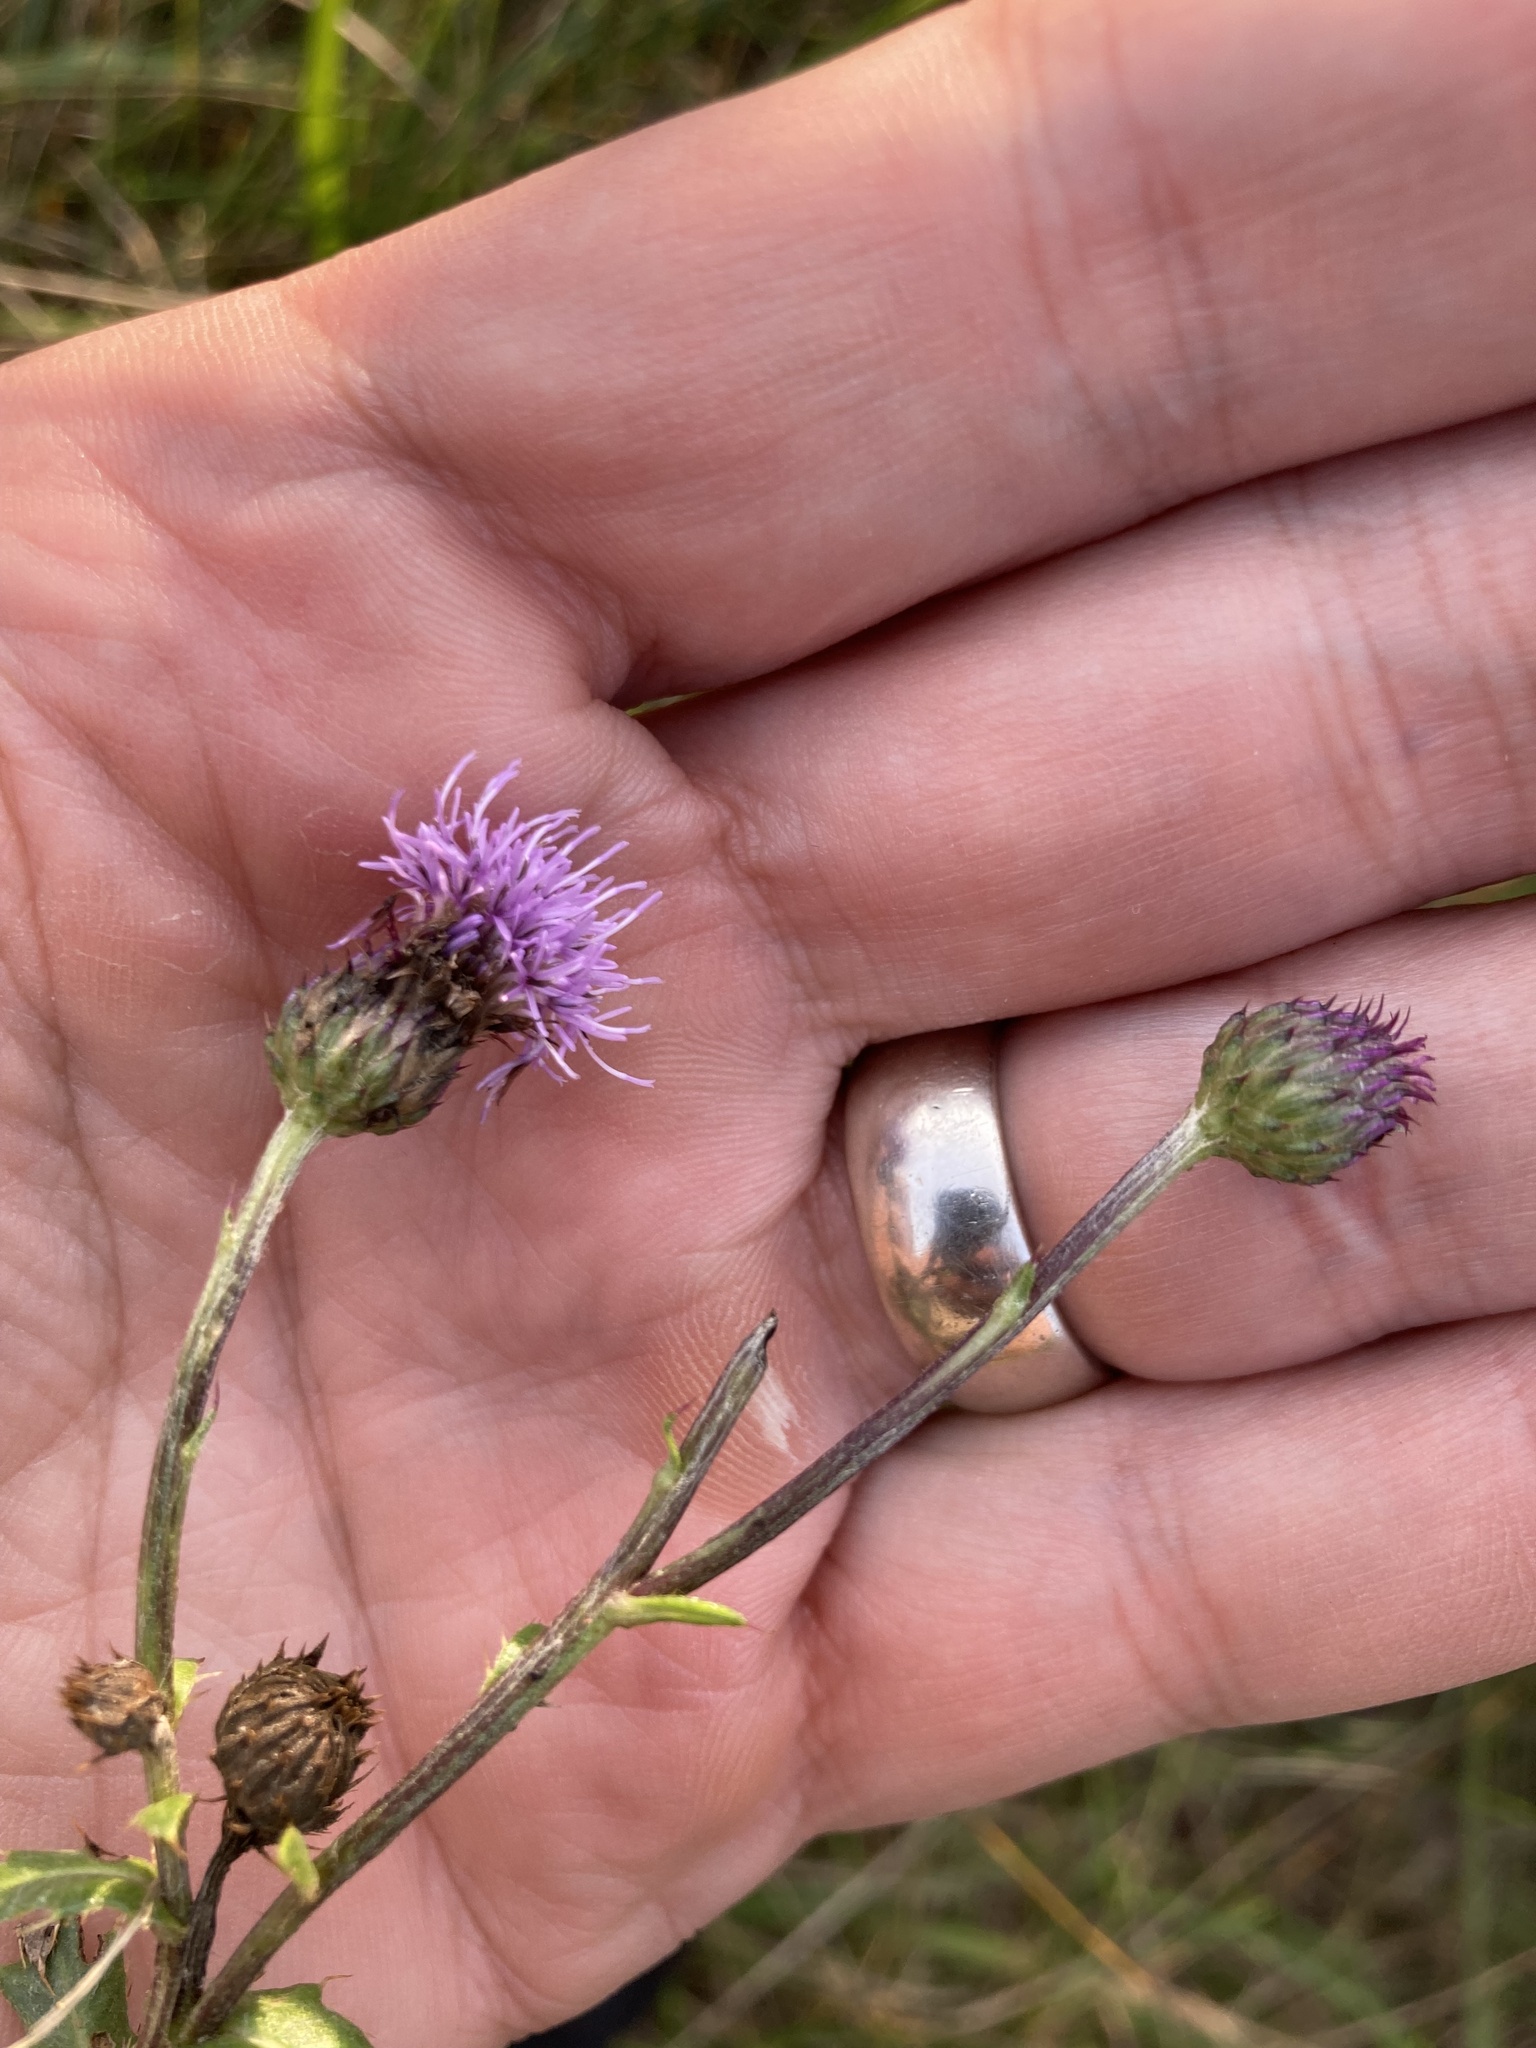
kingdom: Plantae
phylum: Tracheophyta
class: Magnoliopsida
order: Asterales
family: Asteraceae
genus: Cirsium
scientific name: Cirsium arvense
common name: Creeping thistle
